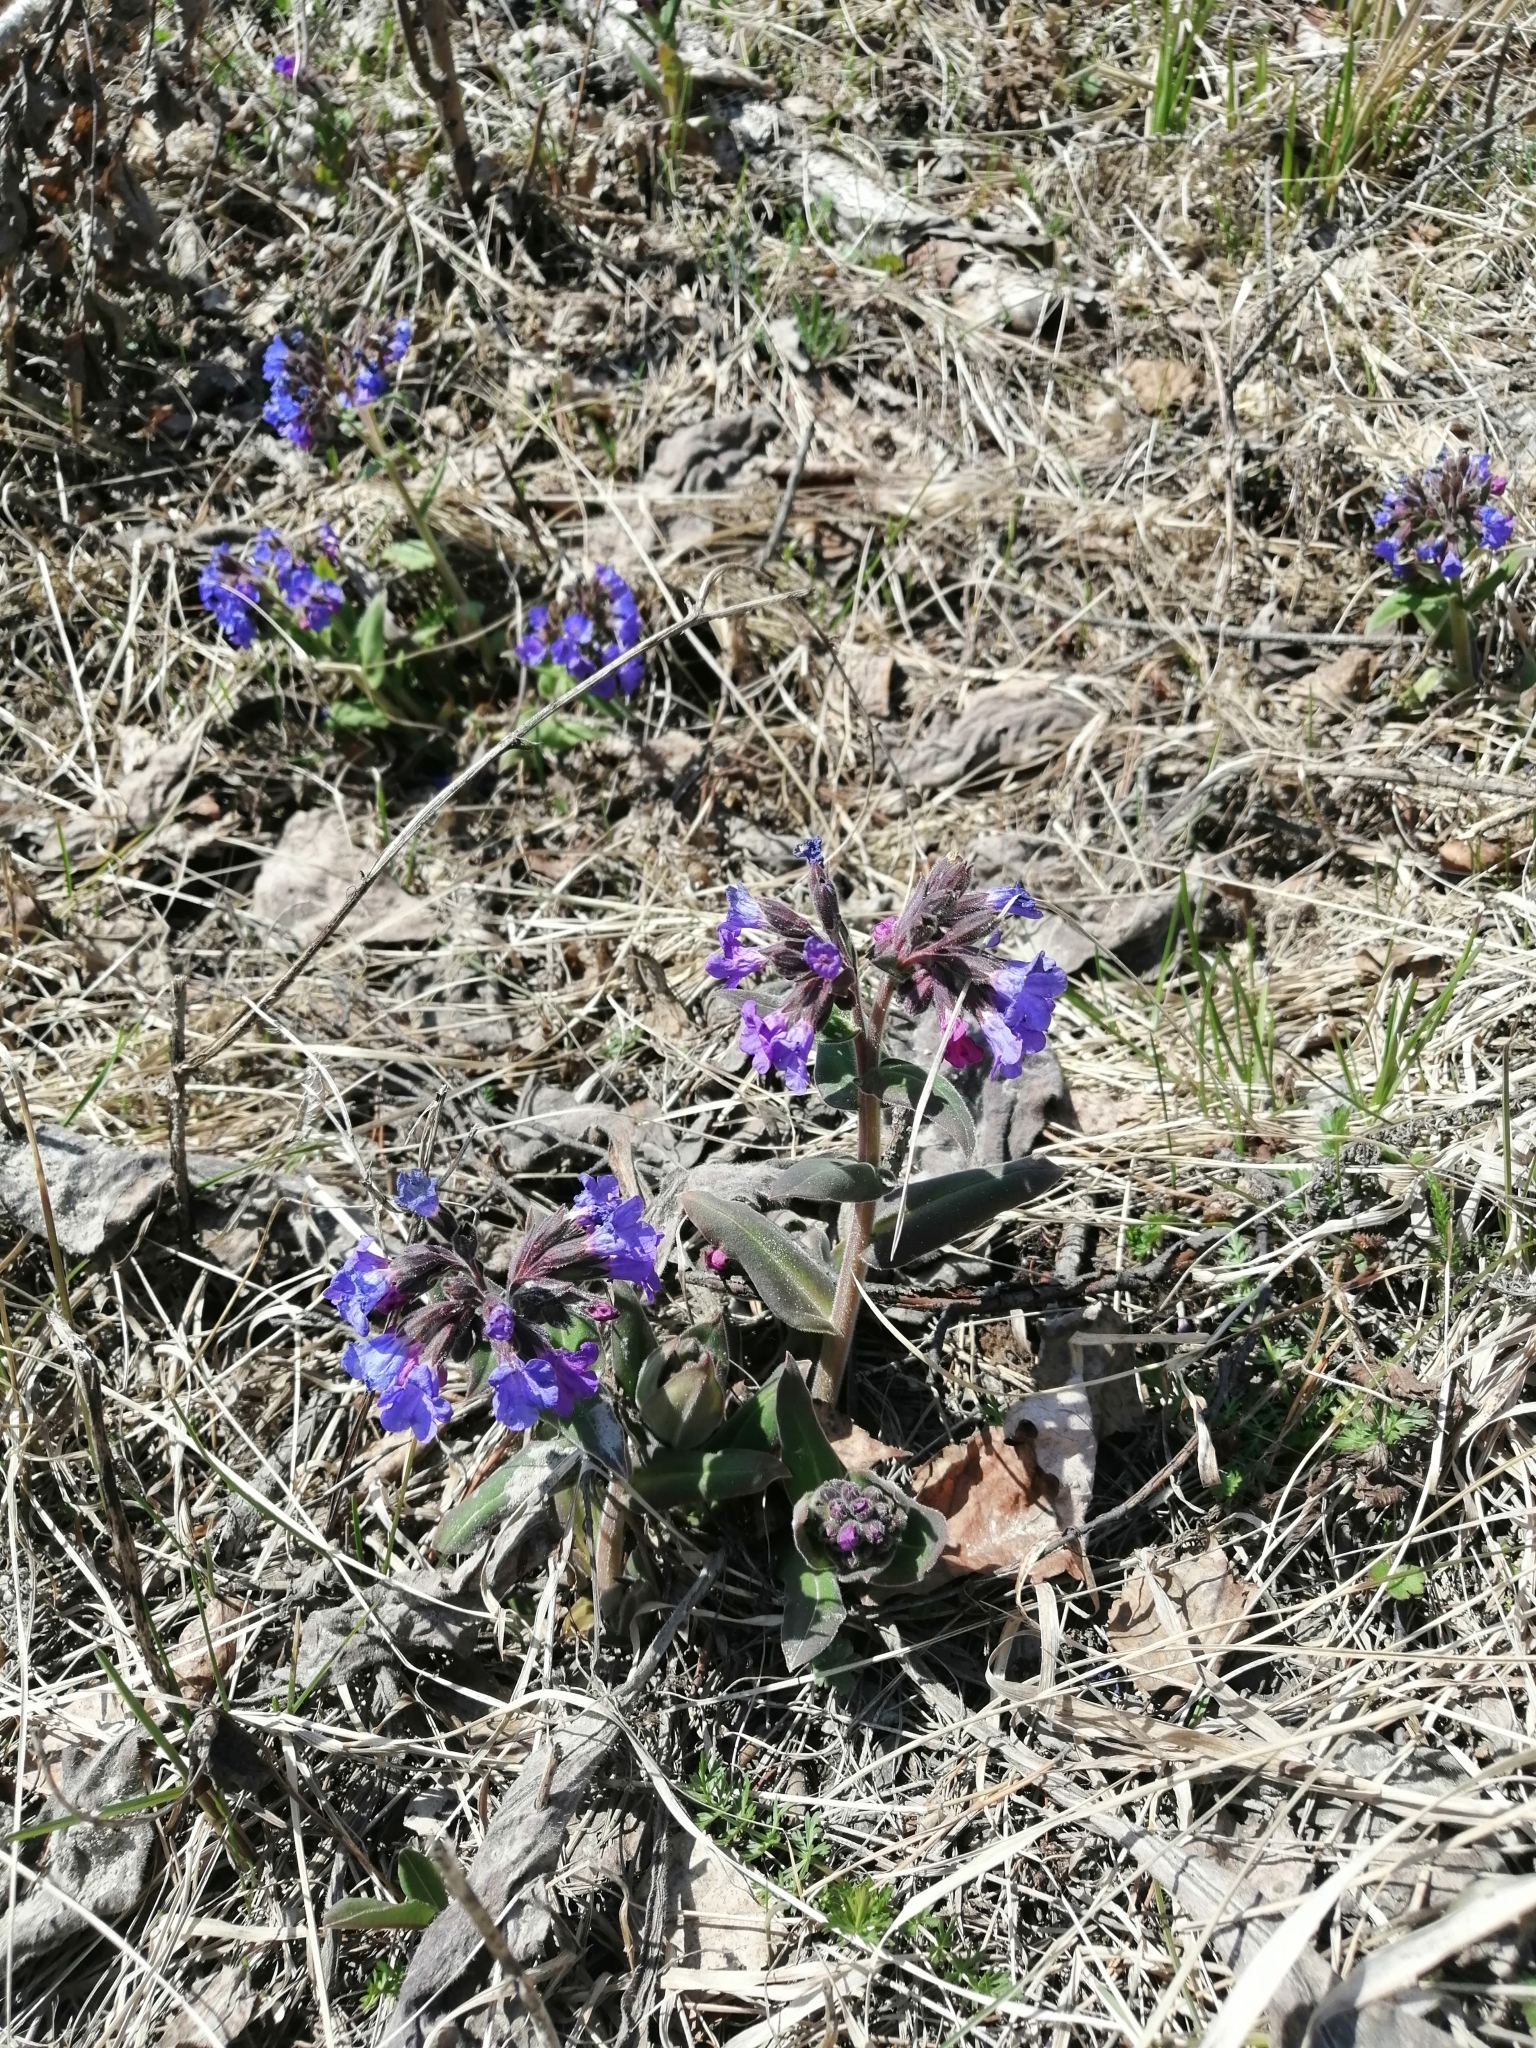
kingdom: Plantae
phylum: Tracheophyta
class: Magnoliopsida
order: Boraginales
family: Boraginaceae
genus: Pulmonaria
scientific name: Pulmonaria mollis
